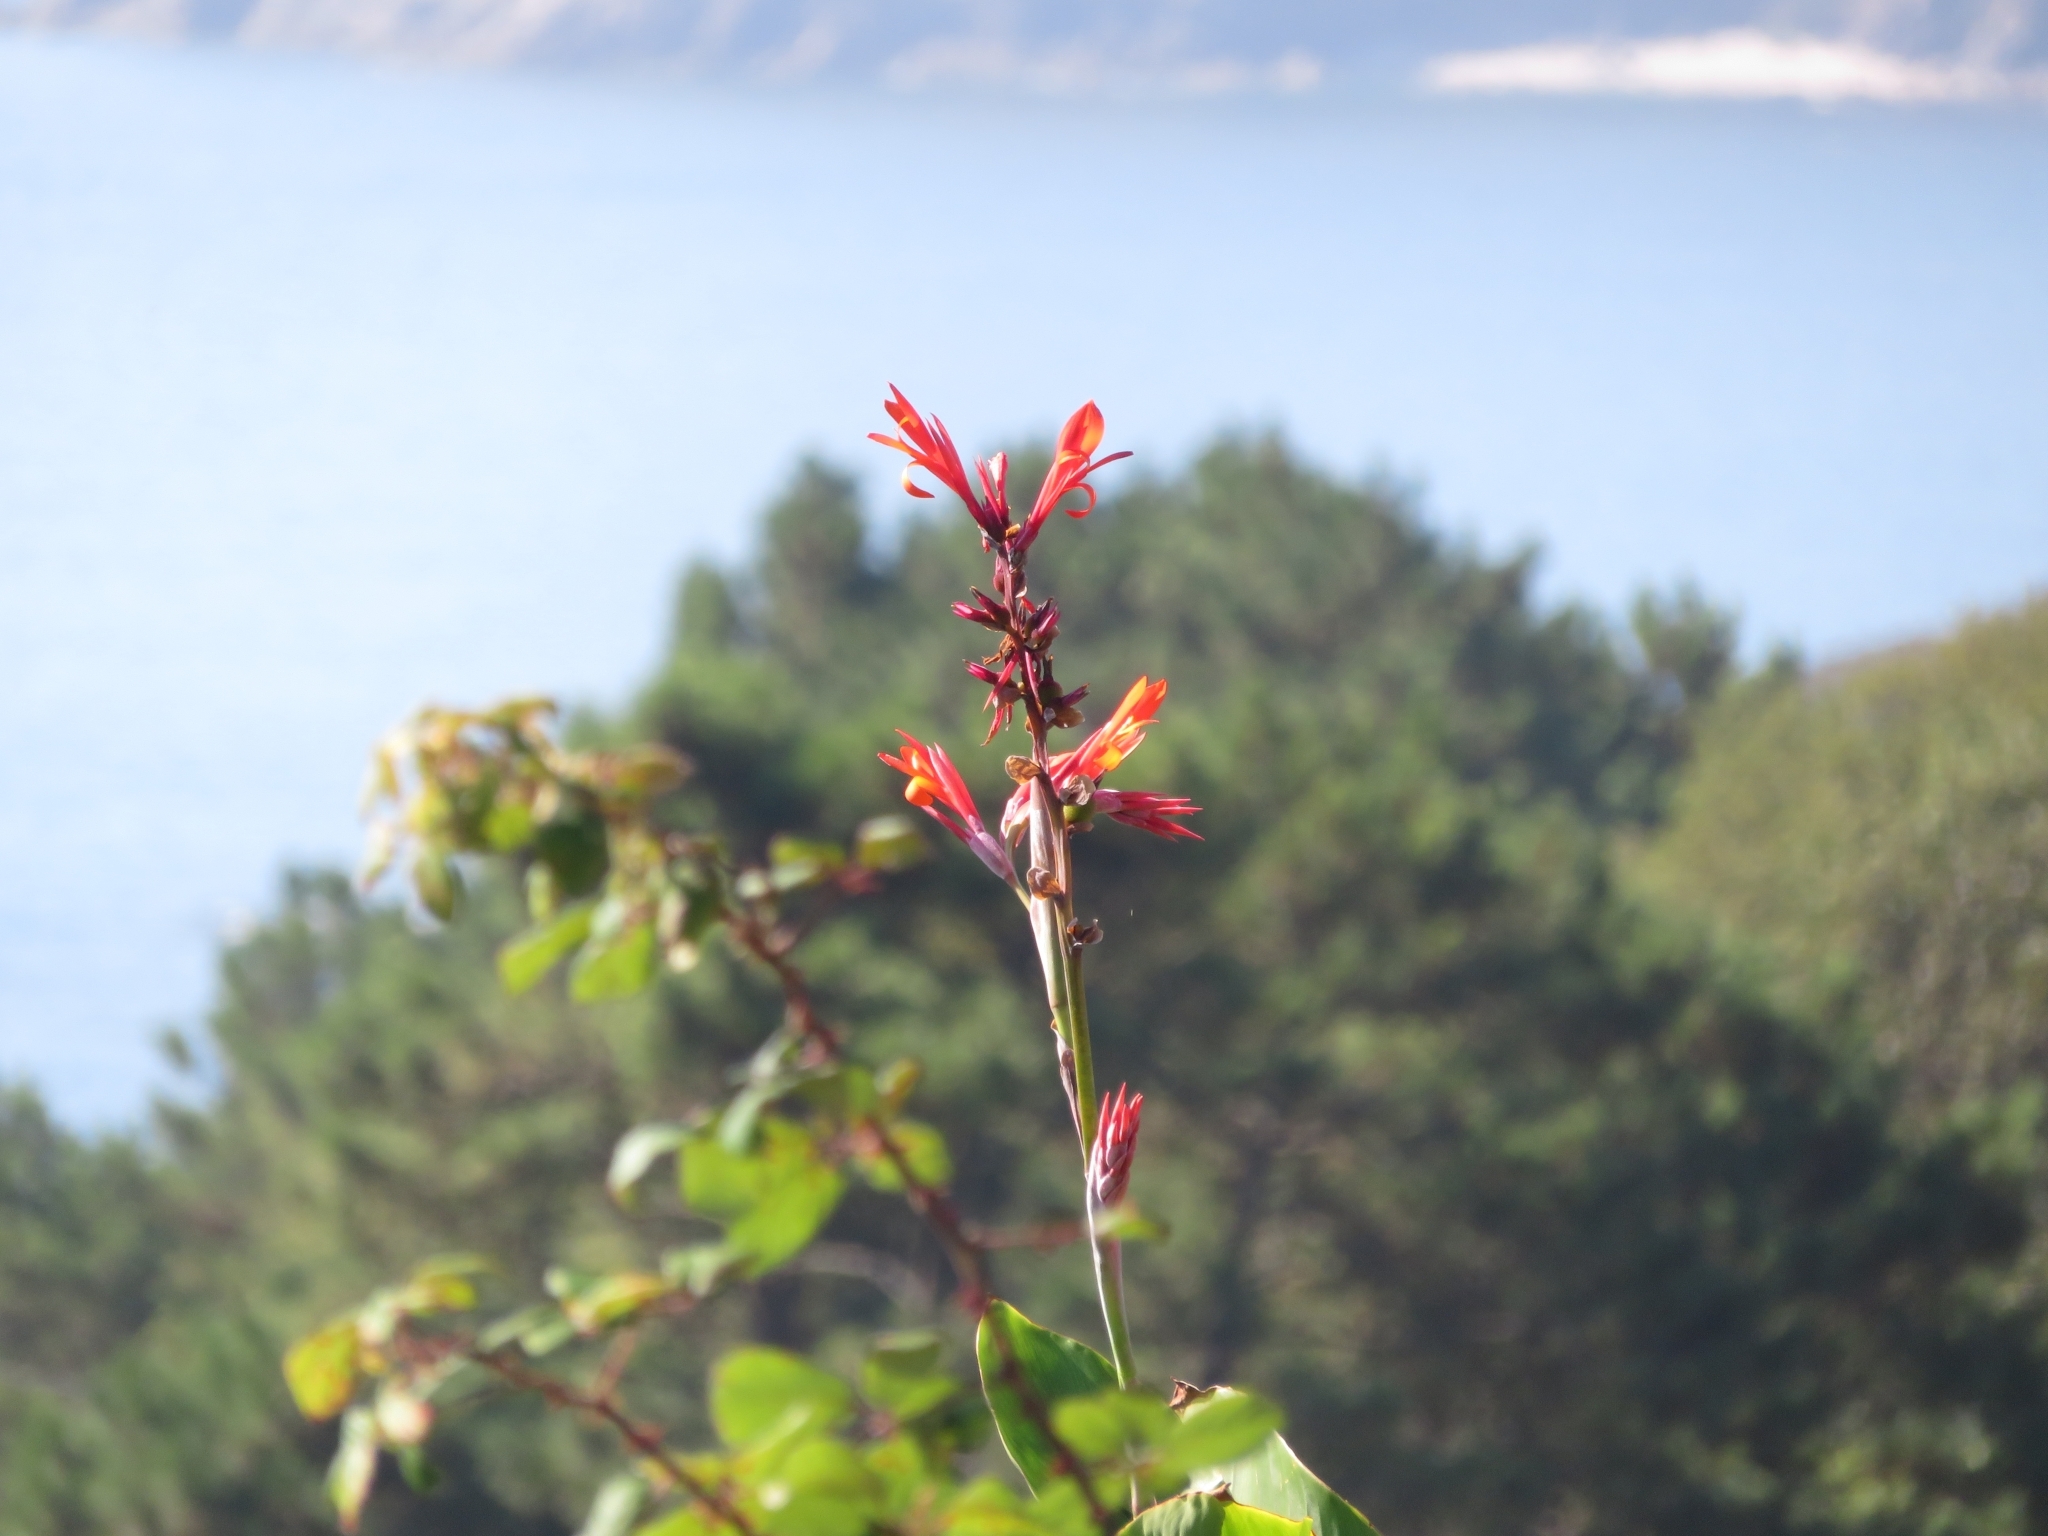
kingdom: Plantae
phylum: Tracheophyta
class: Liliopsida
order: Zingiberales
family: Cannaceae
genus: Canna
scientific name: Canna indica
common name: Indian shot
